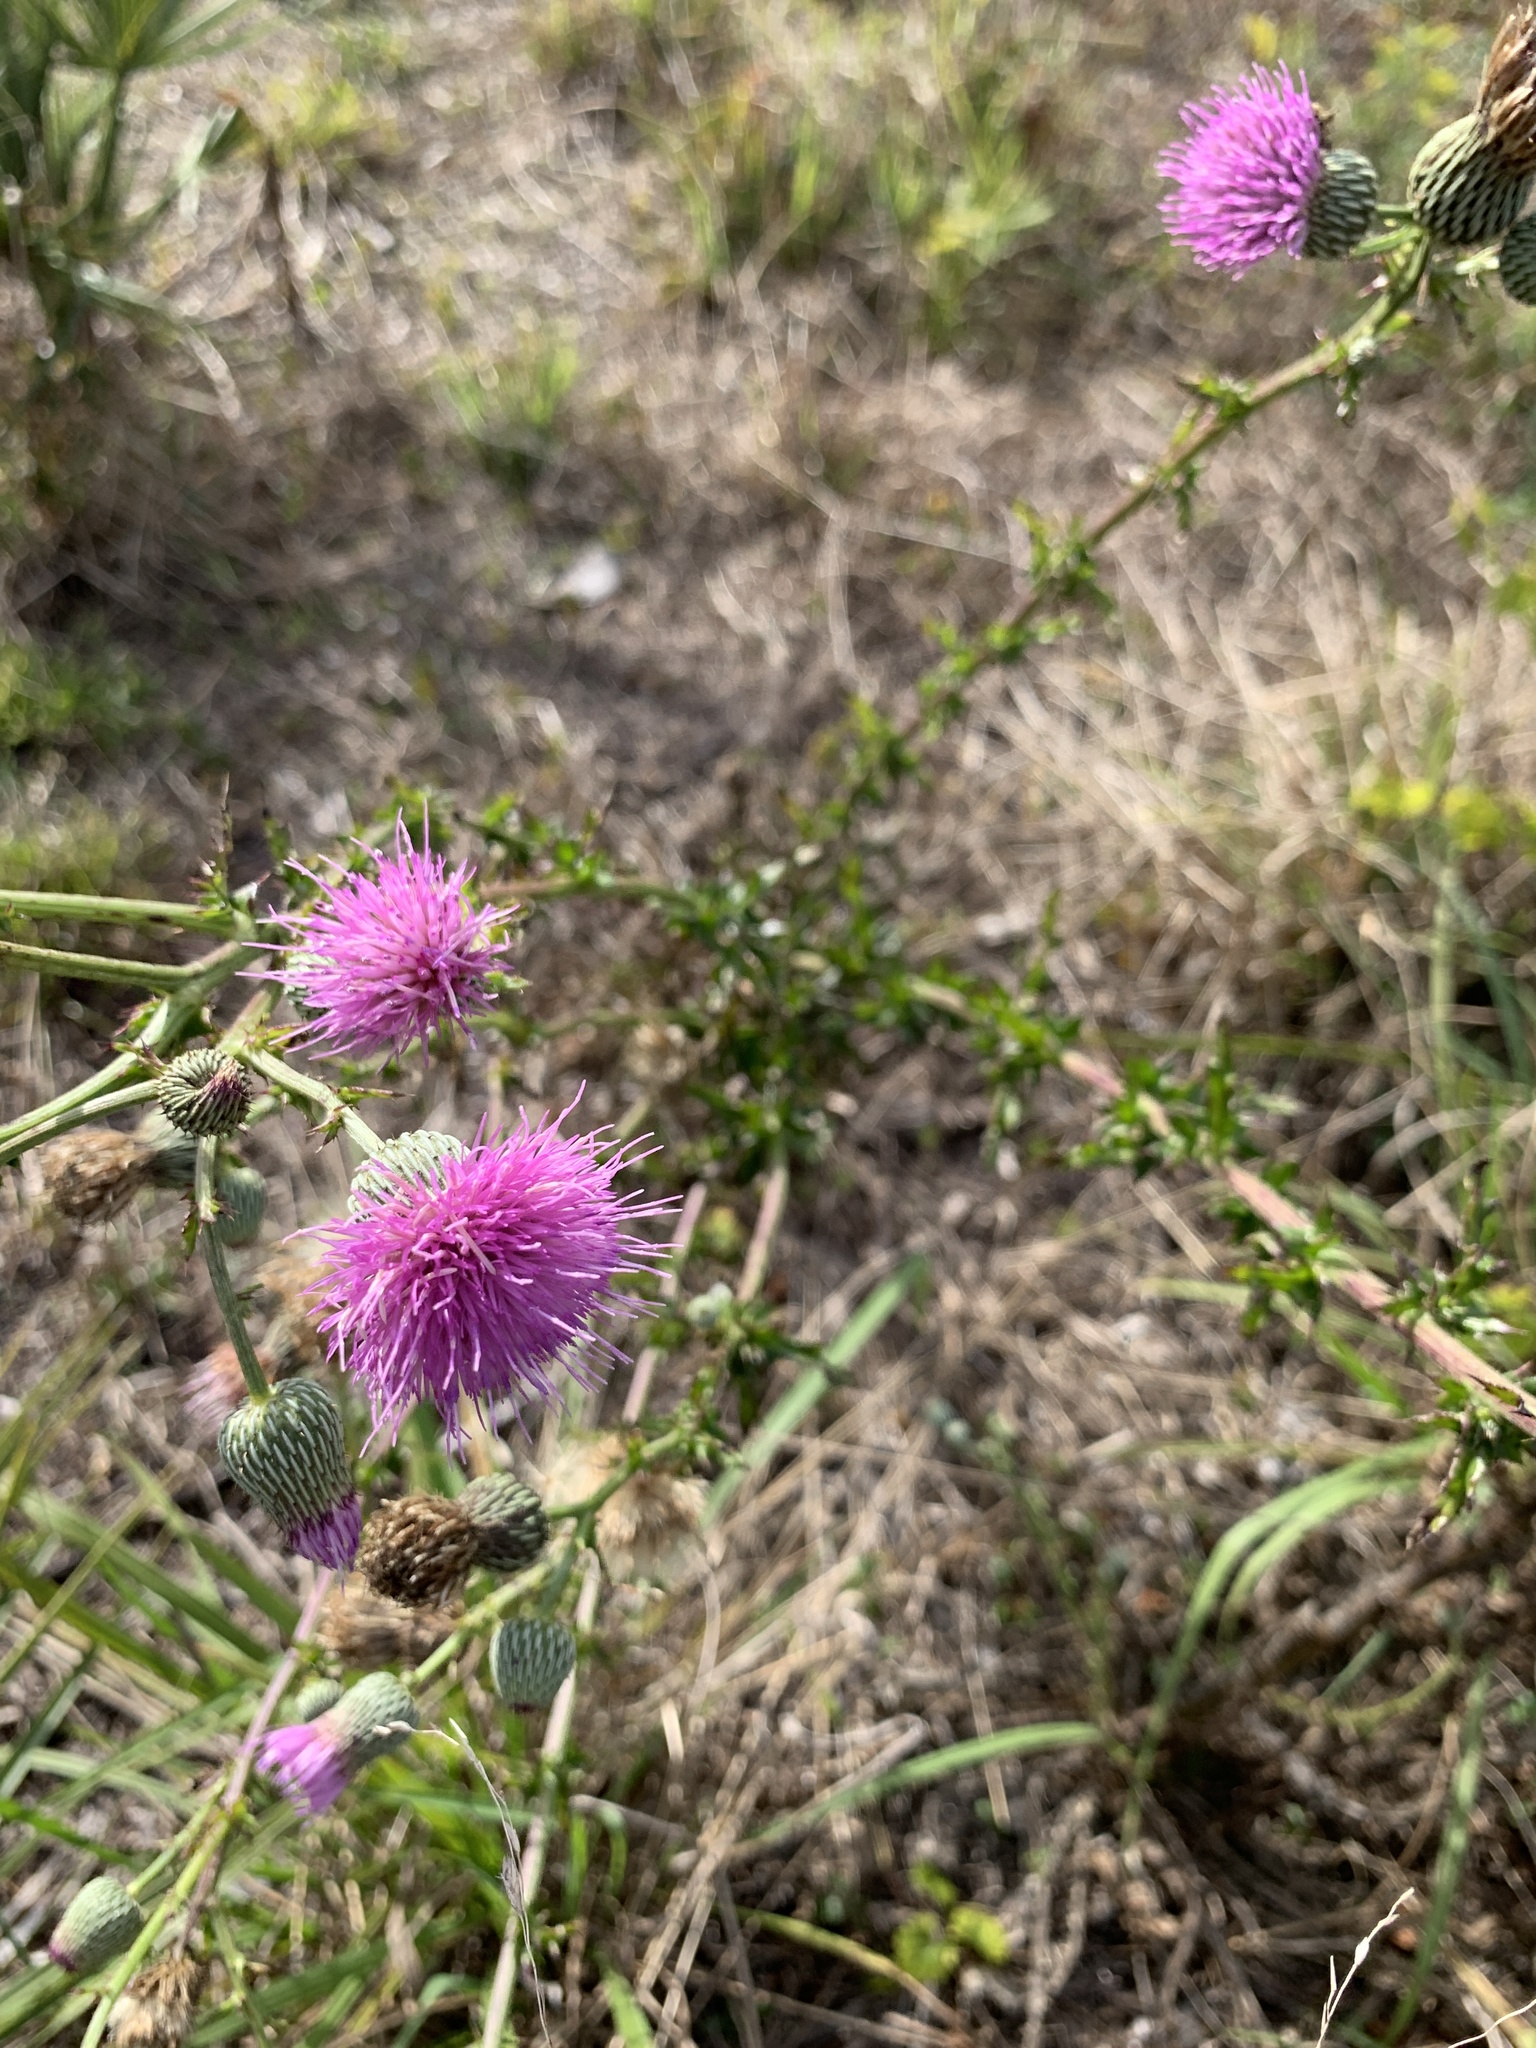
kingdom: Plantae
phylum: Tracheophyta
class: Magnoliopsida
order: Asterales
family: Asteraceae
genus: Cirsium
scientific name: Cirsium nuttalii
